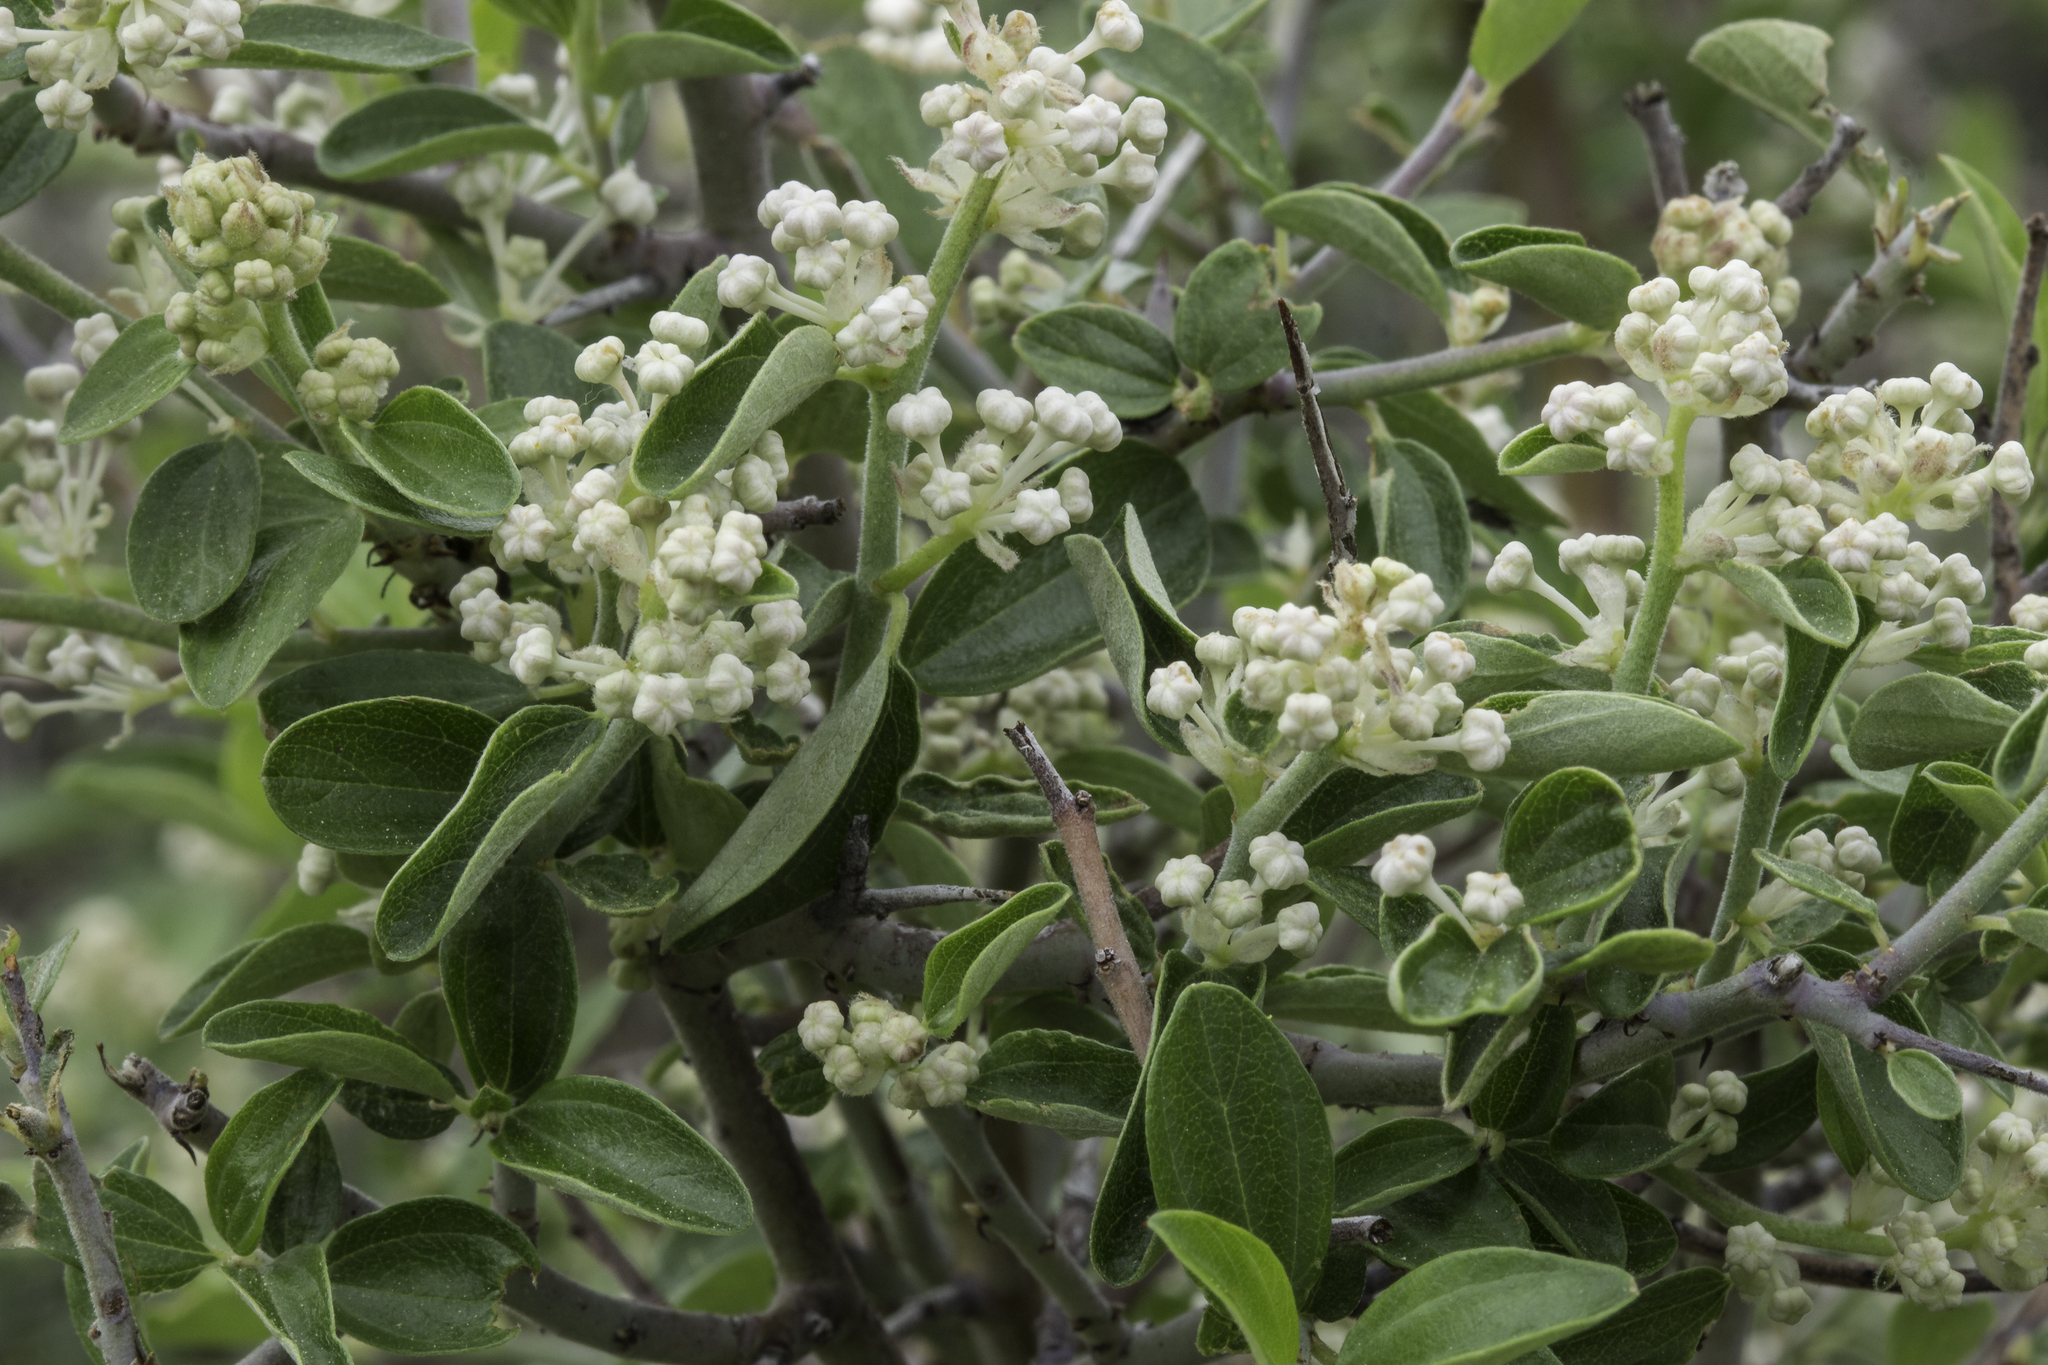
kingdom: Plantae
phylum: Tracheophyta
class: Magnoliopsida
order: Rosales
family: Rhamnaceae
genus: Ceanothus
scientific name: Ceanothus fendleri
